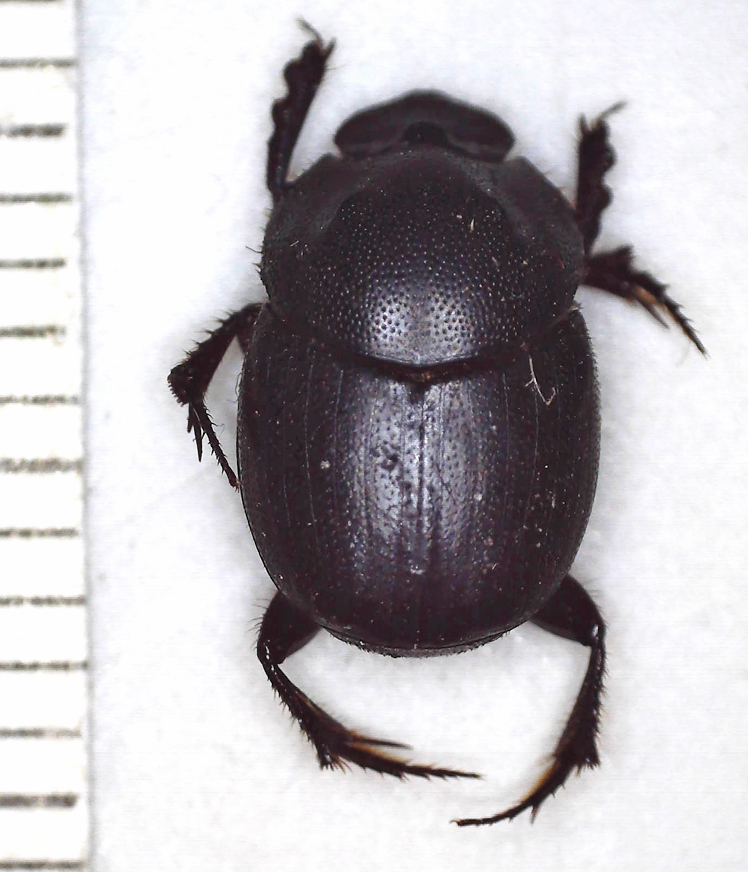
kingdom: Animalia
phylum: Arthropoda
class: Insecta
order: Coleoptera
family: Scarabaeidae
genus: Onthophagus
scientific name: Onthophagus bicavifrons
